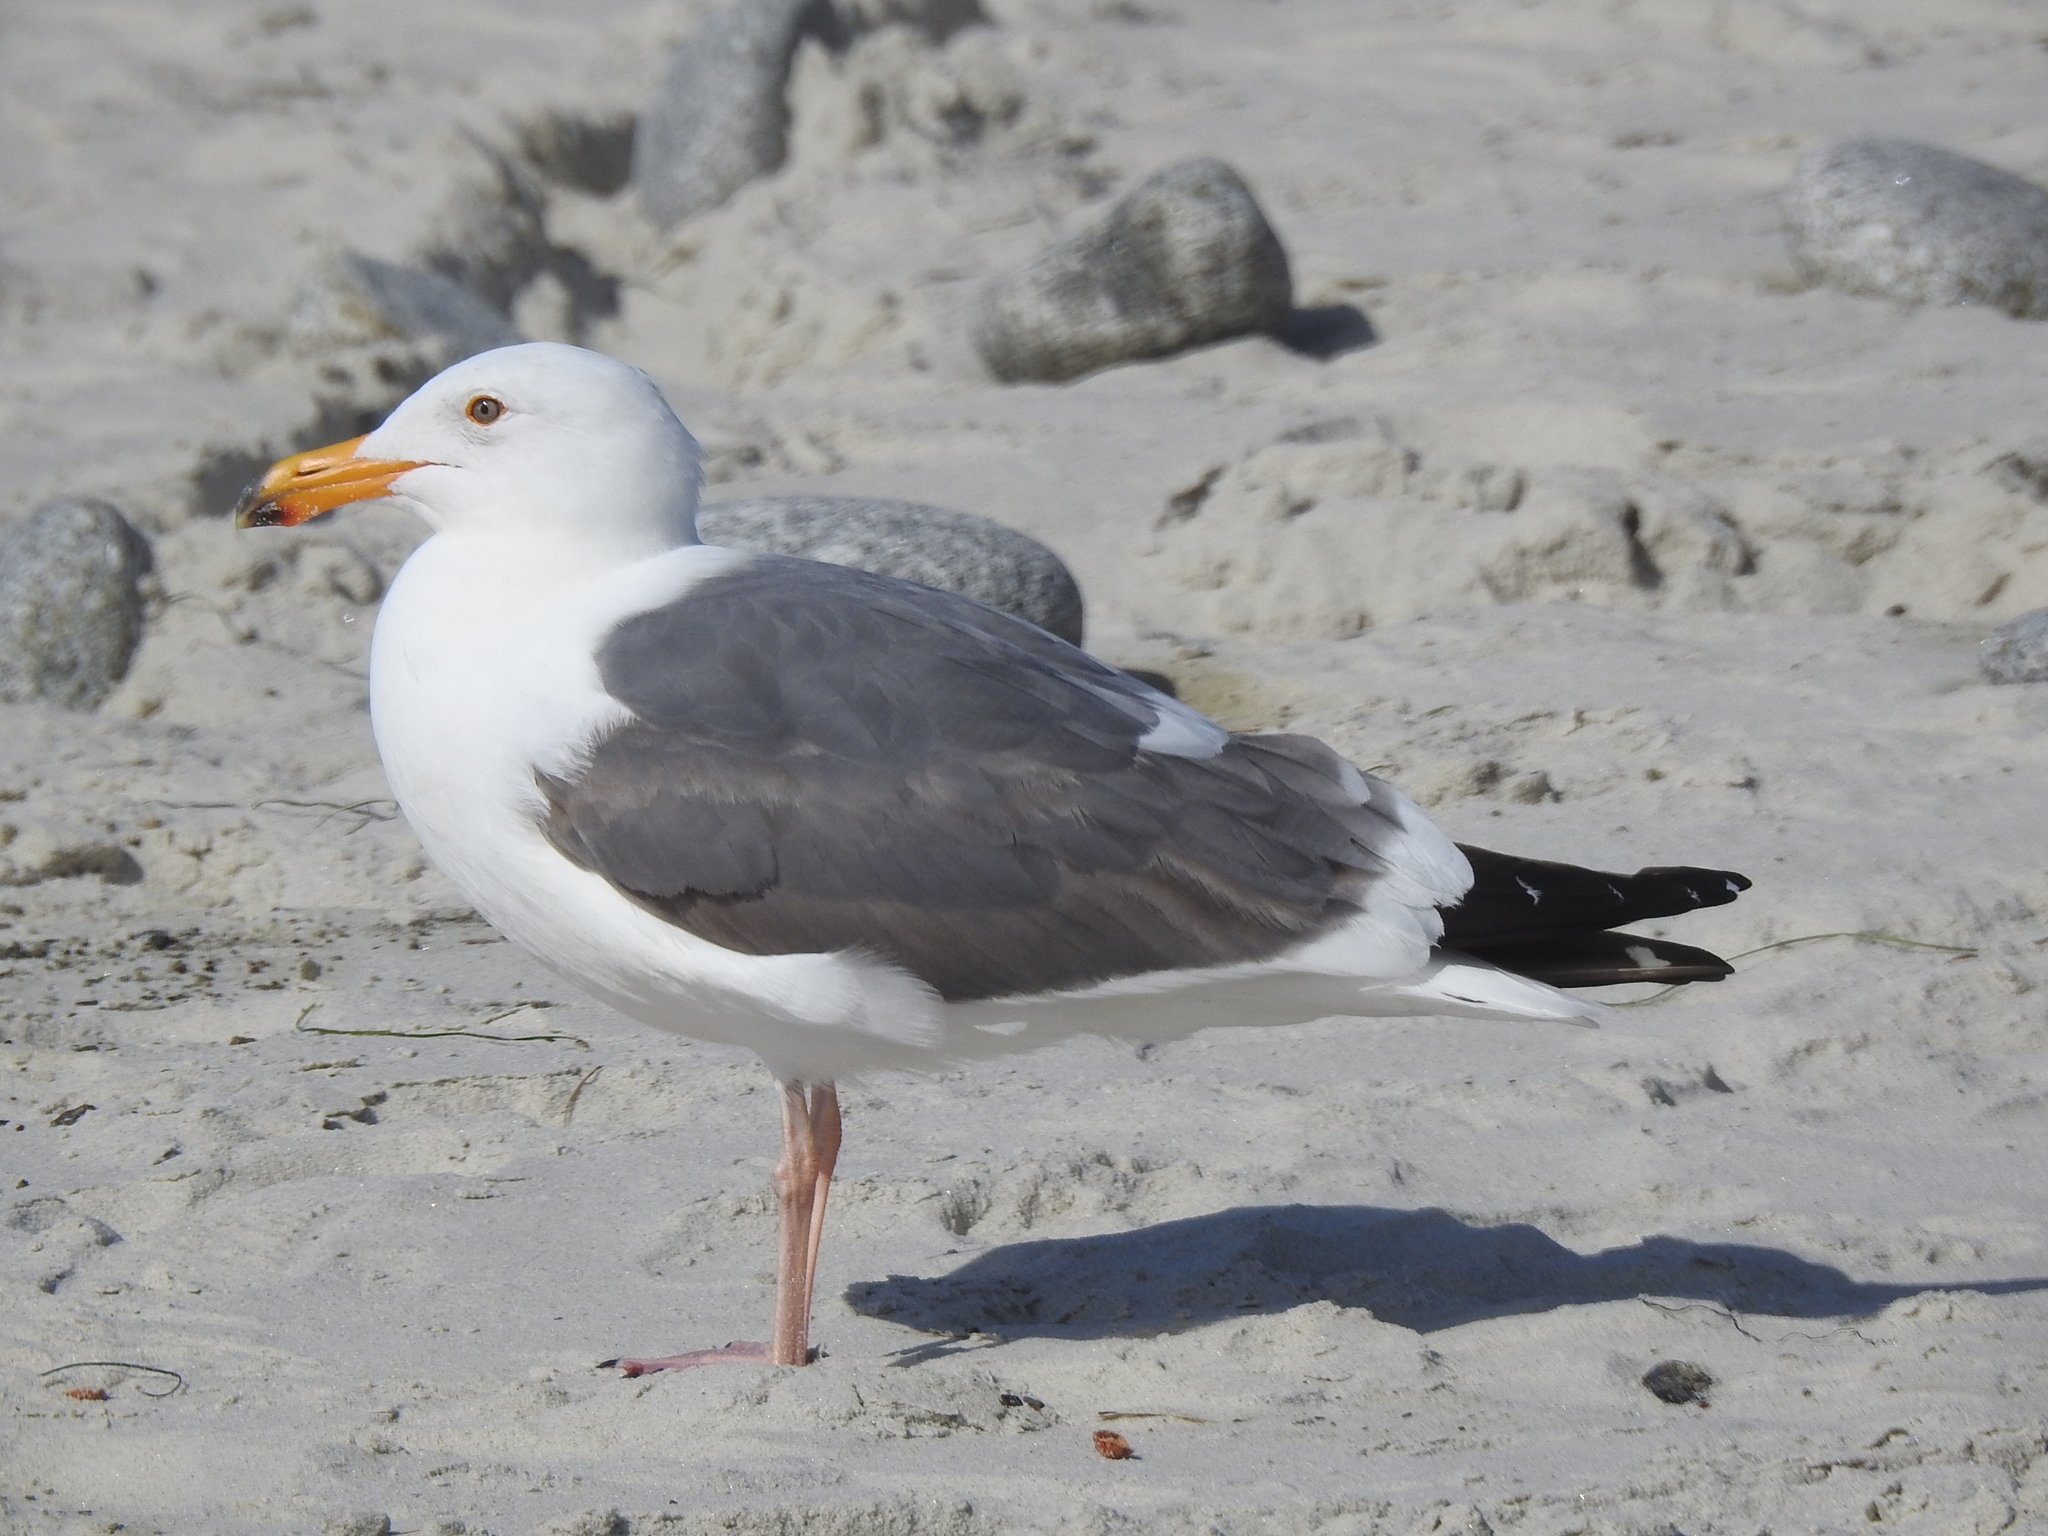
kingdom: Animalia
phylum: Chordata
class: Aves
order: Charadriiformes
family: Laridae
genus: Larus
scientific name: Larus occidentalis
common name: Western gull
